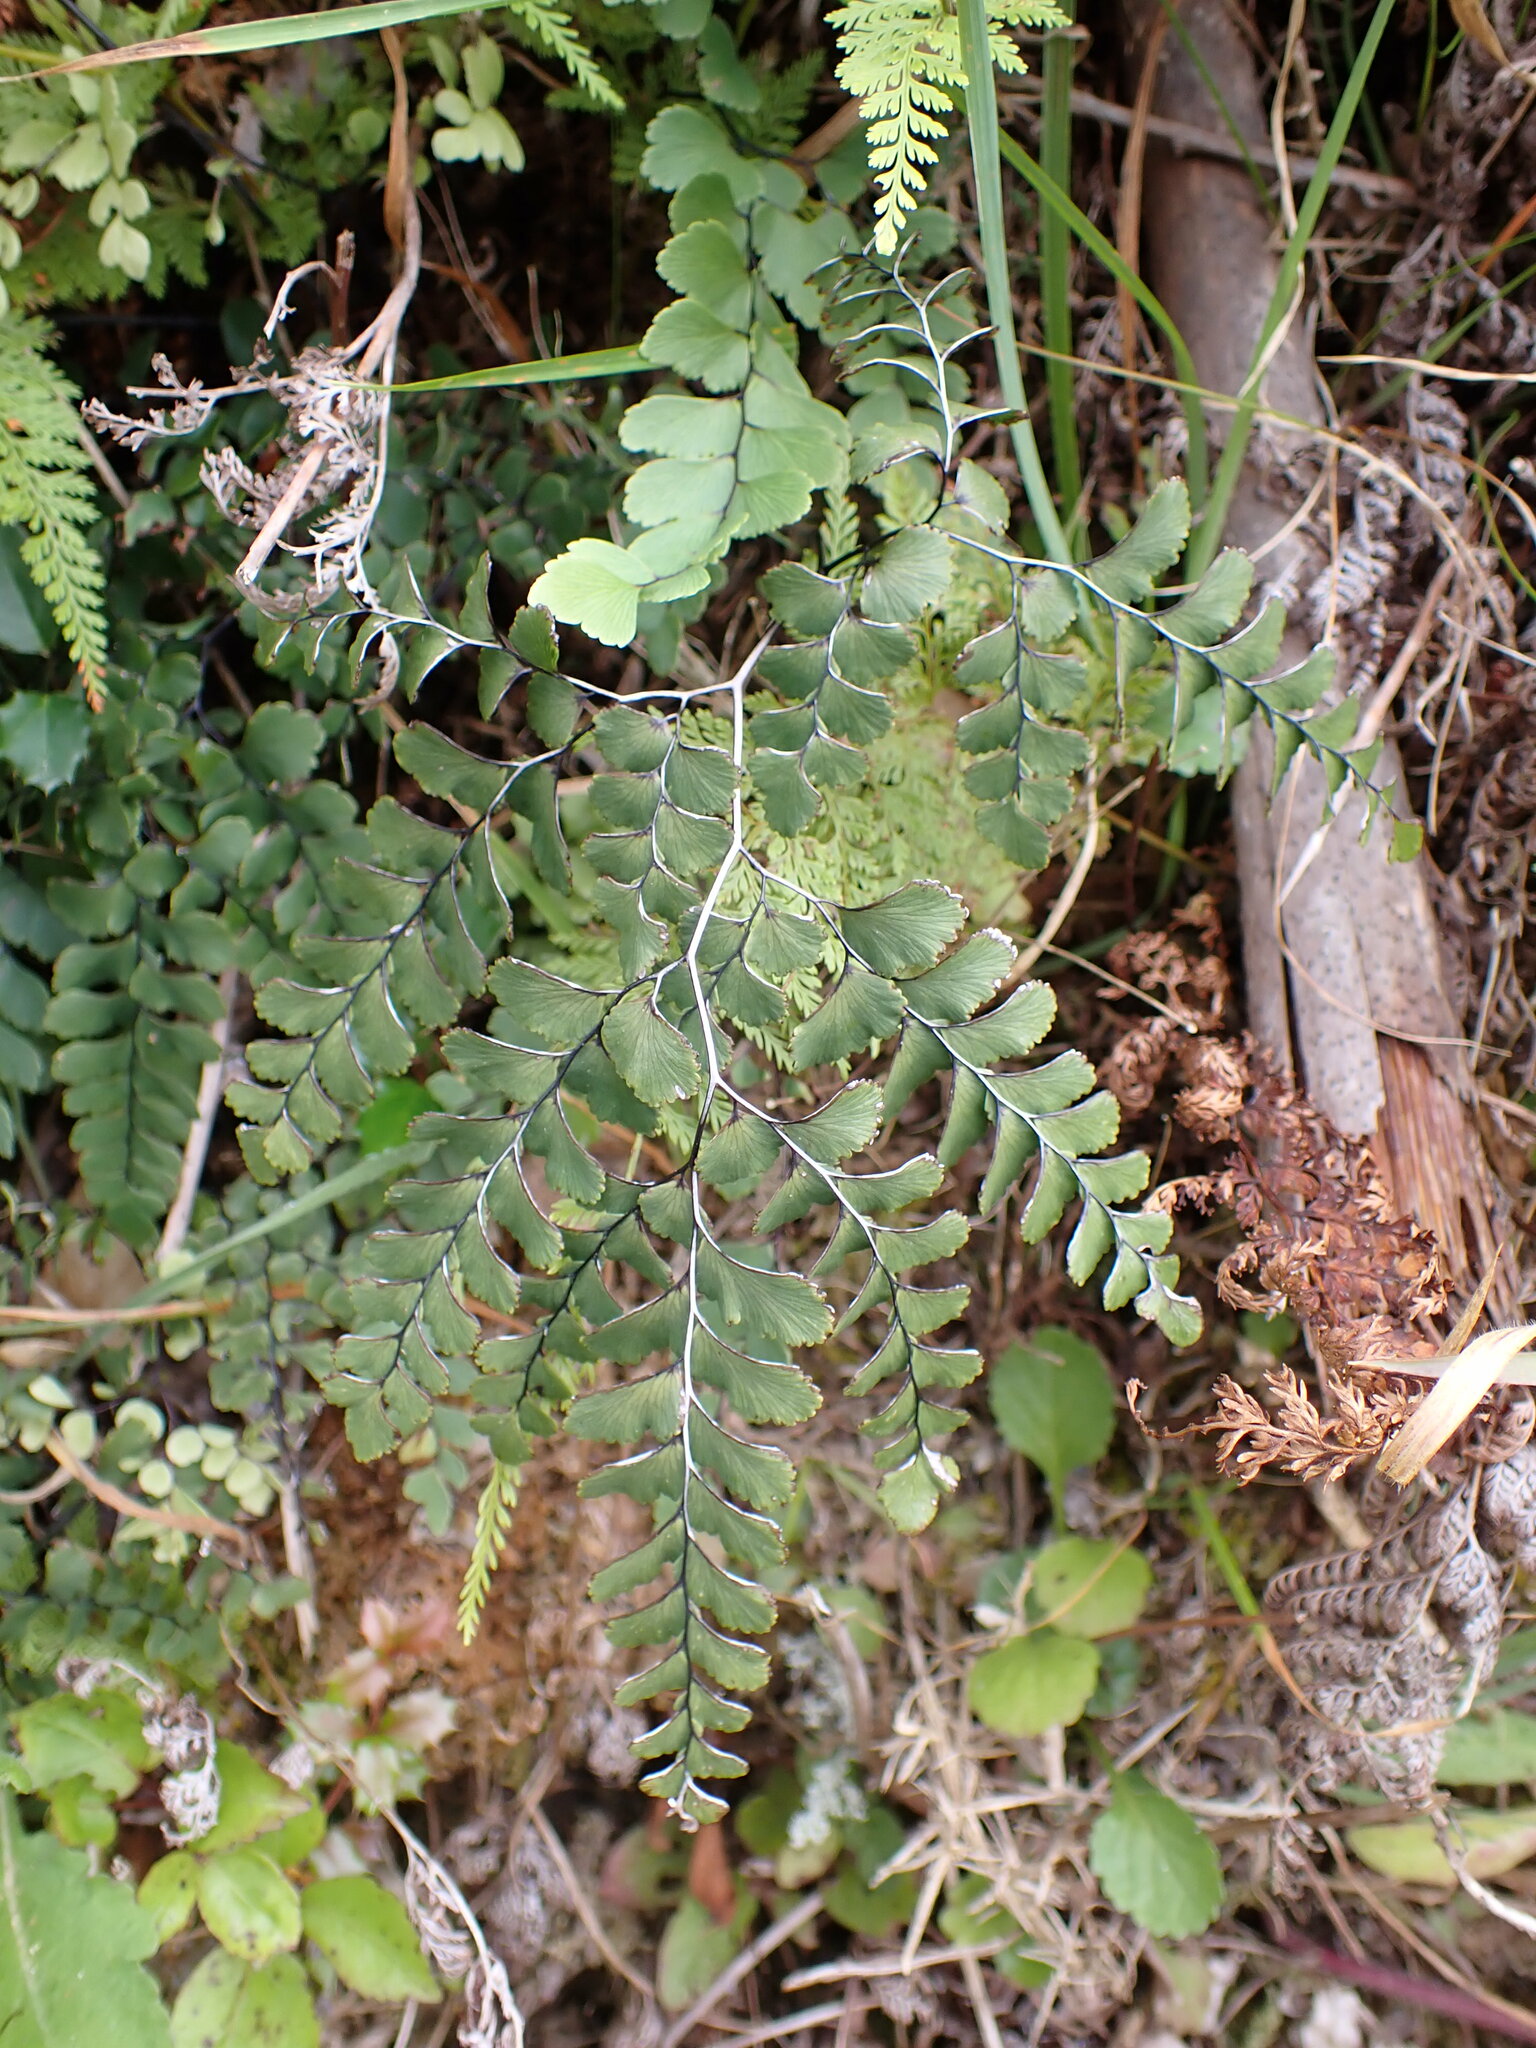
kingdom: Plantae
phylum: Tracheophyta
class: Polypodiopsida
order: Polypodiales
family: Pteridaceae
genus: Adiantum
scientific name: Adiantum cunninghamii
